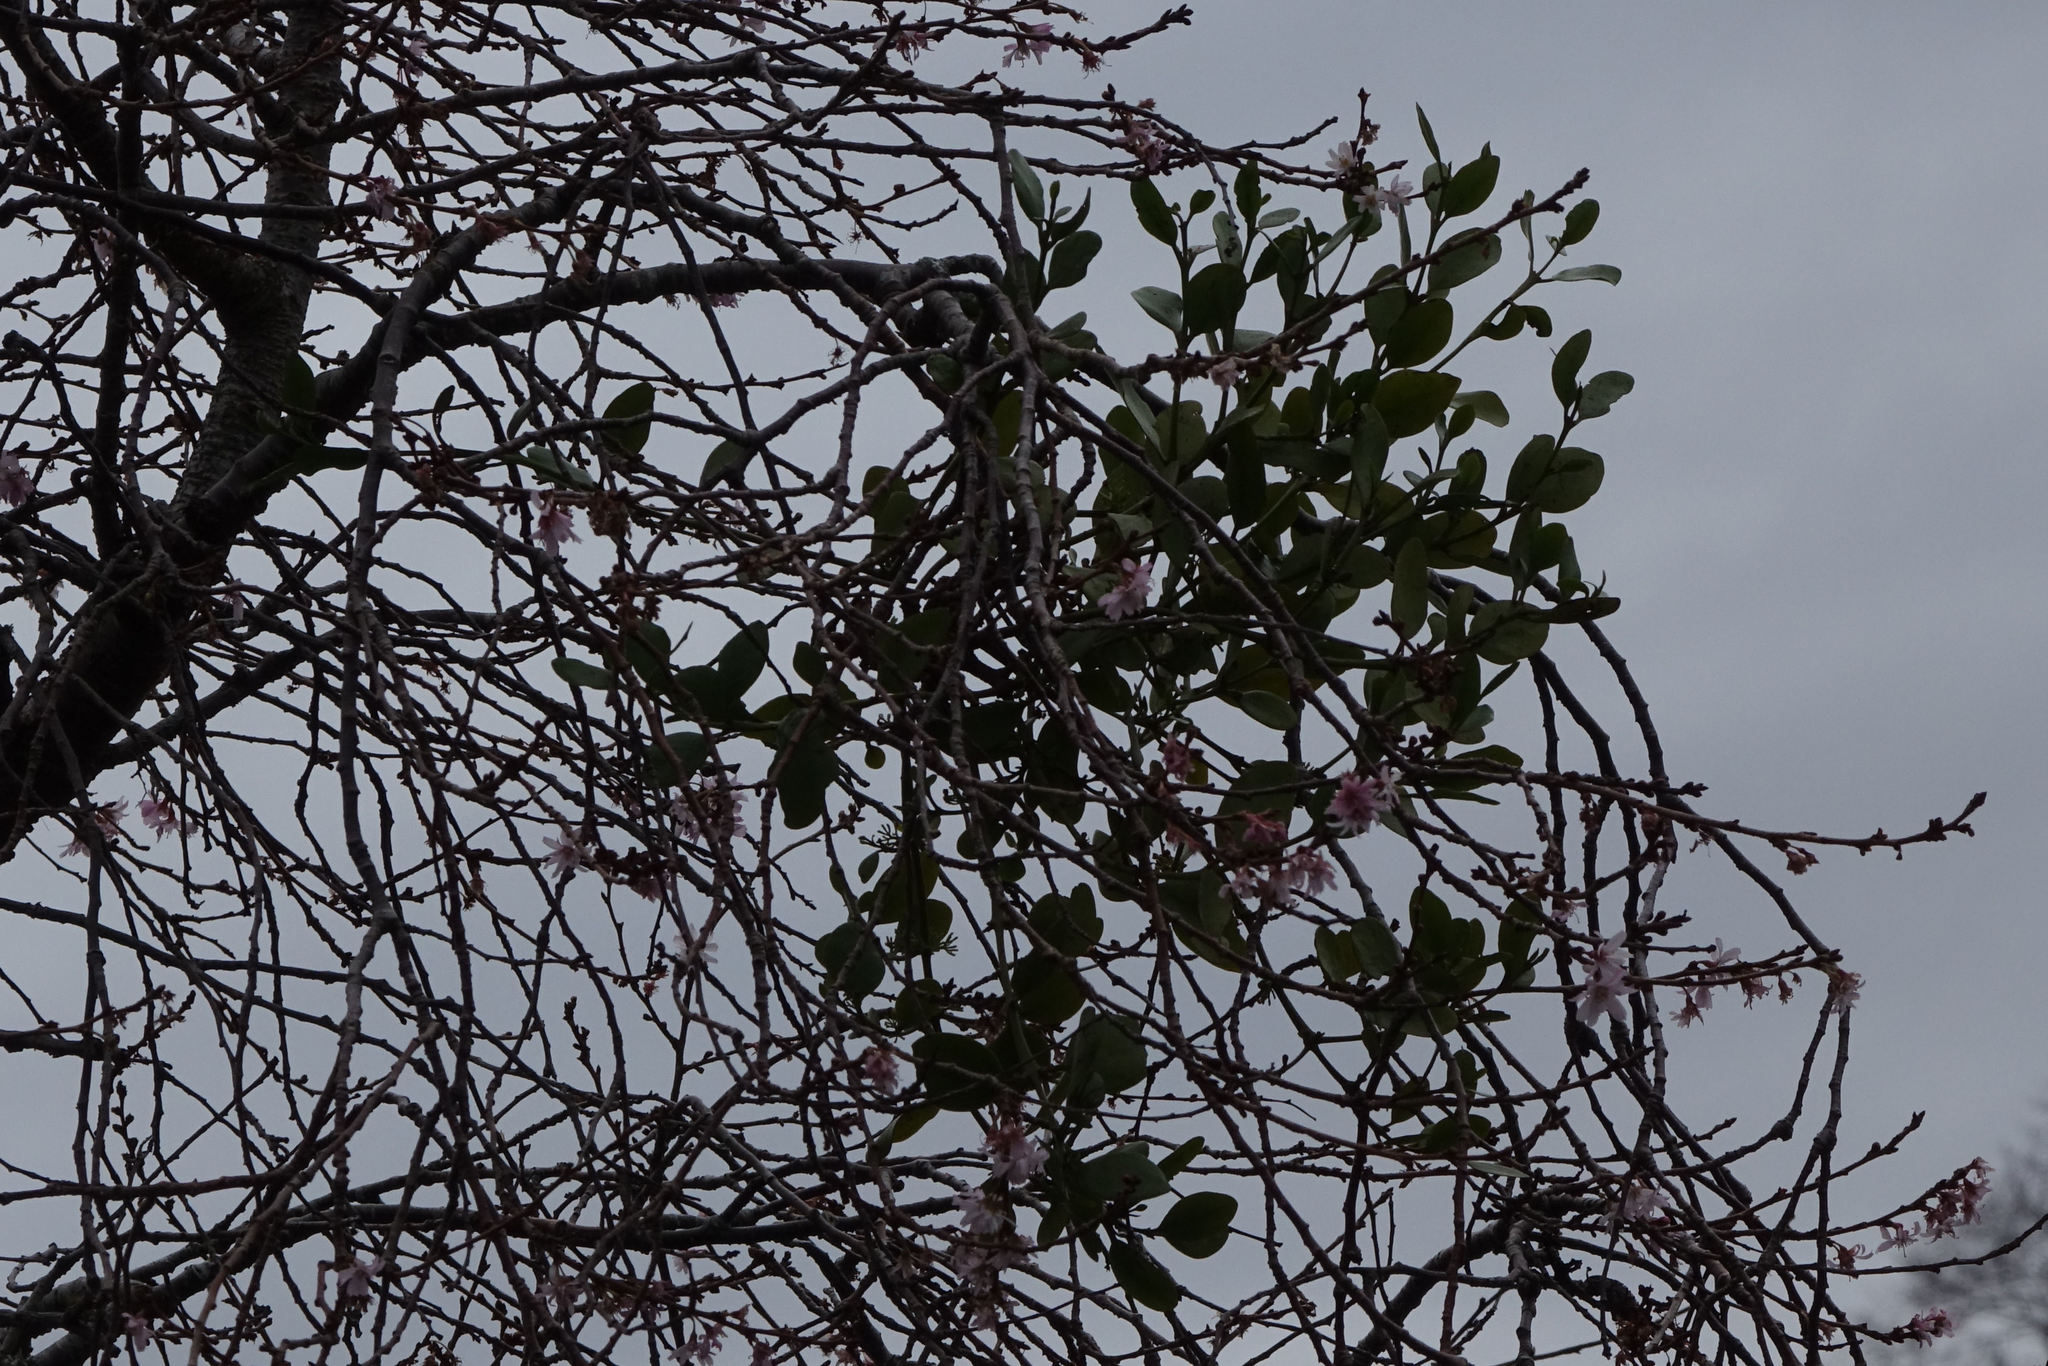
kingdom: Plantae
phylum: Tracheophyta
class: Magnoliopsida
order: Santalales
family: Loranthaceae
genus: Ileostylus
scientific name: Ileostylus micranthus
